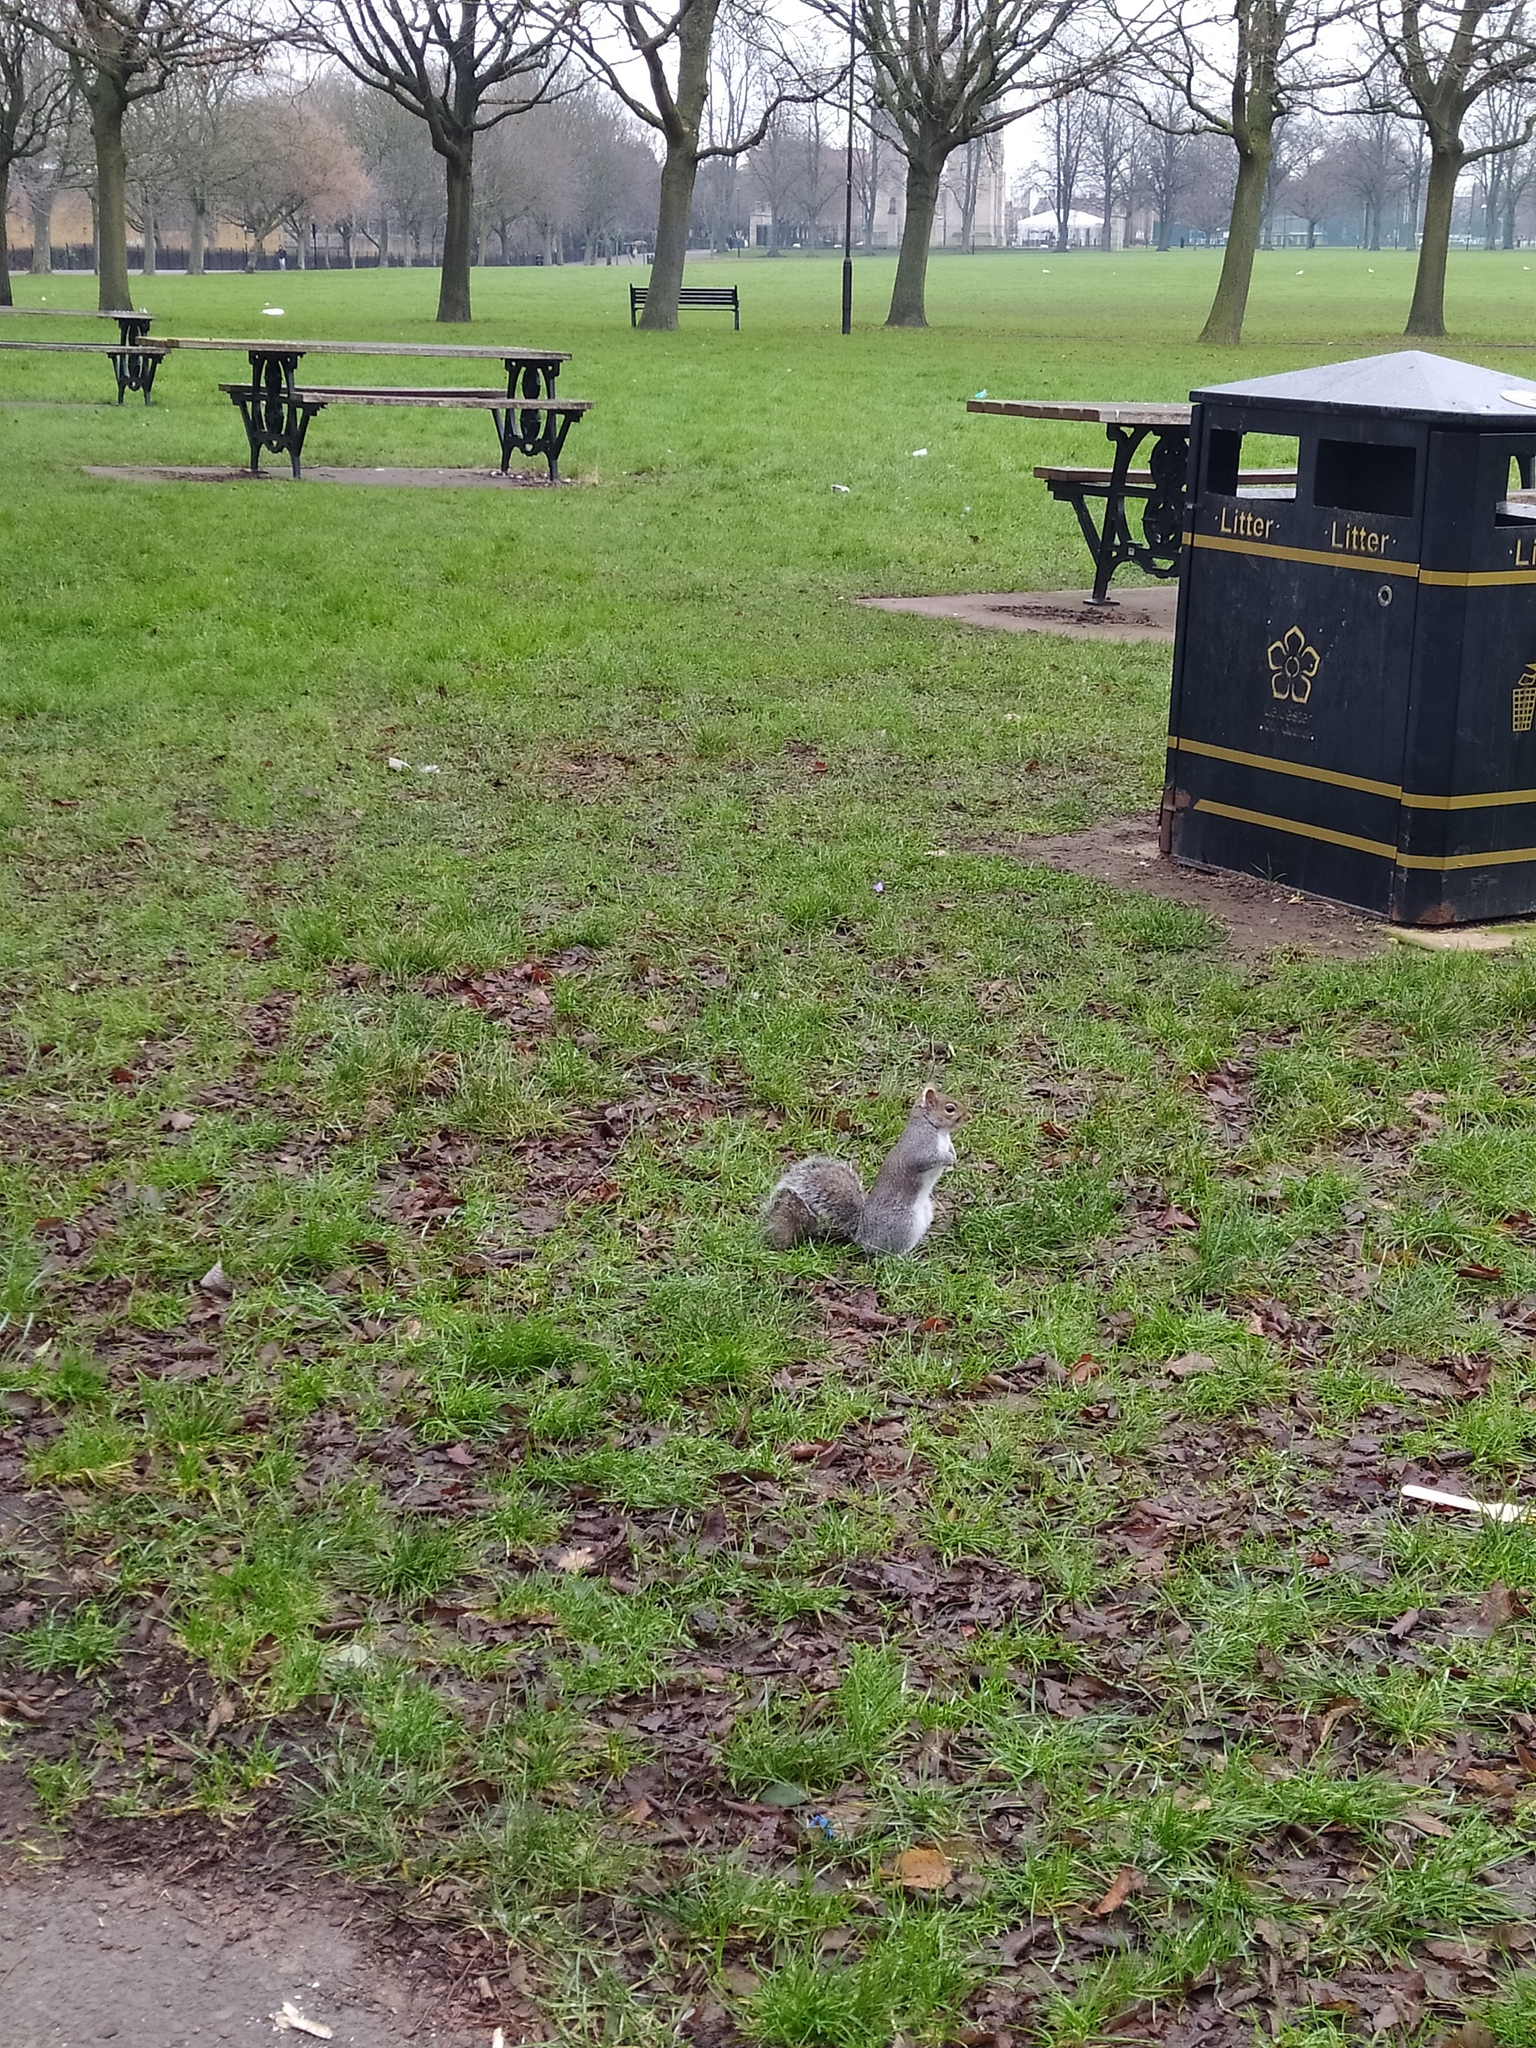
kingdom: Animalia
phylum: Chordata
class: Mammalia
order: Rodentia
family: Sciuridae
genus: Sciurus
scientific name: Sciurus carolinensis
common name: Eastern gray squirrel
